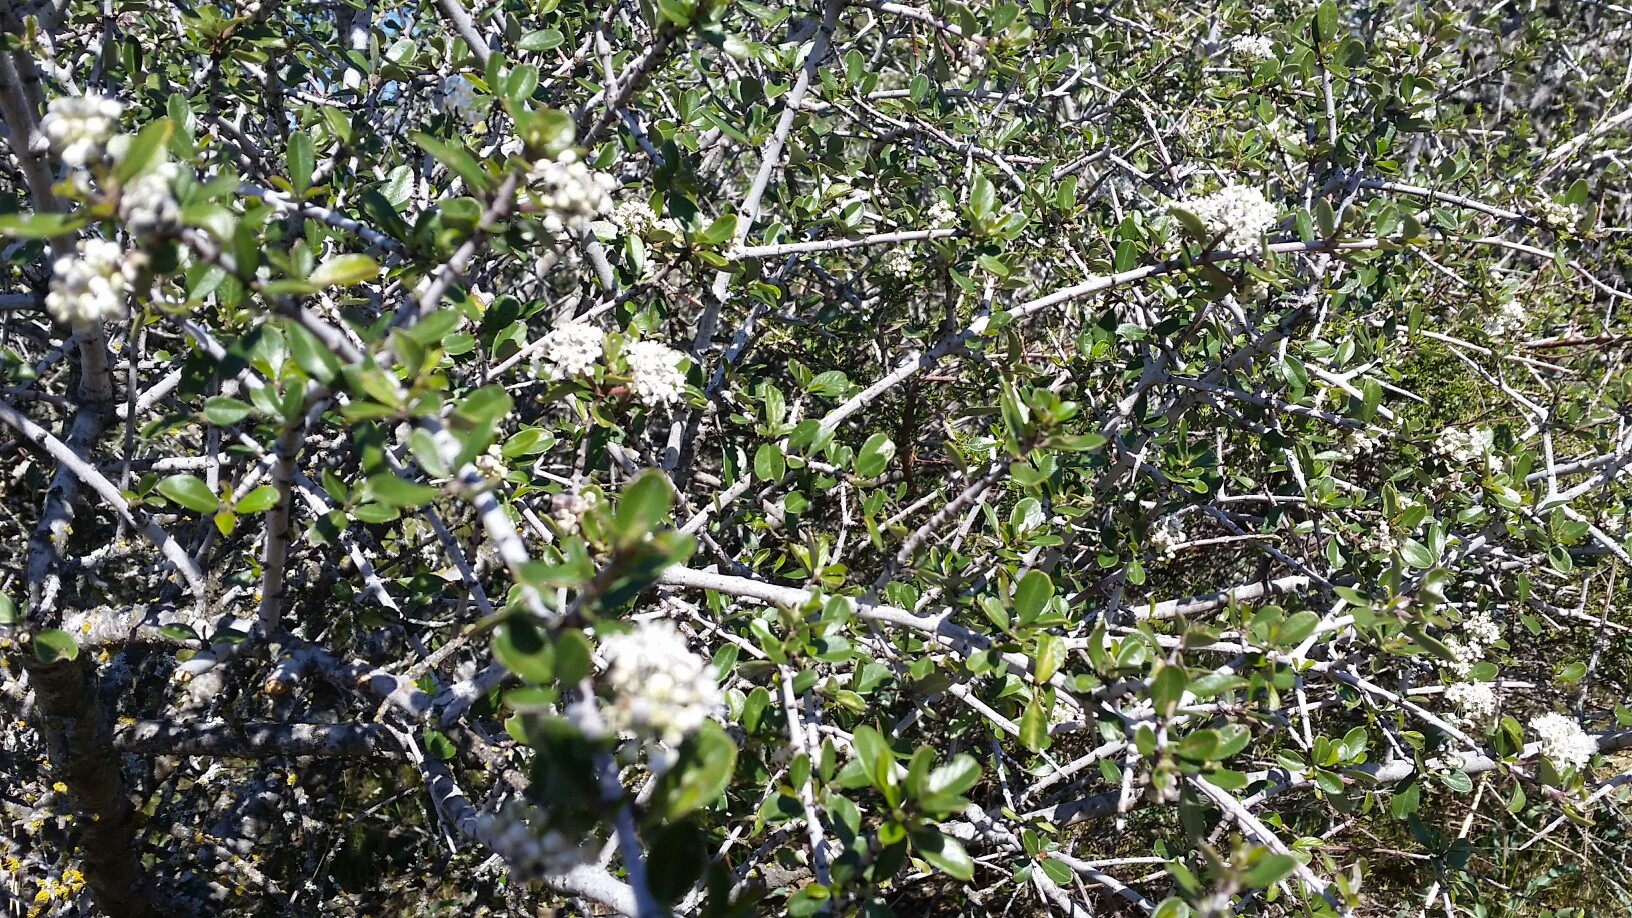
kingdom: Plantae
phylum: Tracheophyta
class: Magnoliopsida
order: Rosales
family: Rhamnaceae
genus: Ceanothus
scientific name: Ceanothus cuneatus
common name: Cuneate ceanothus
